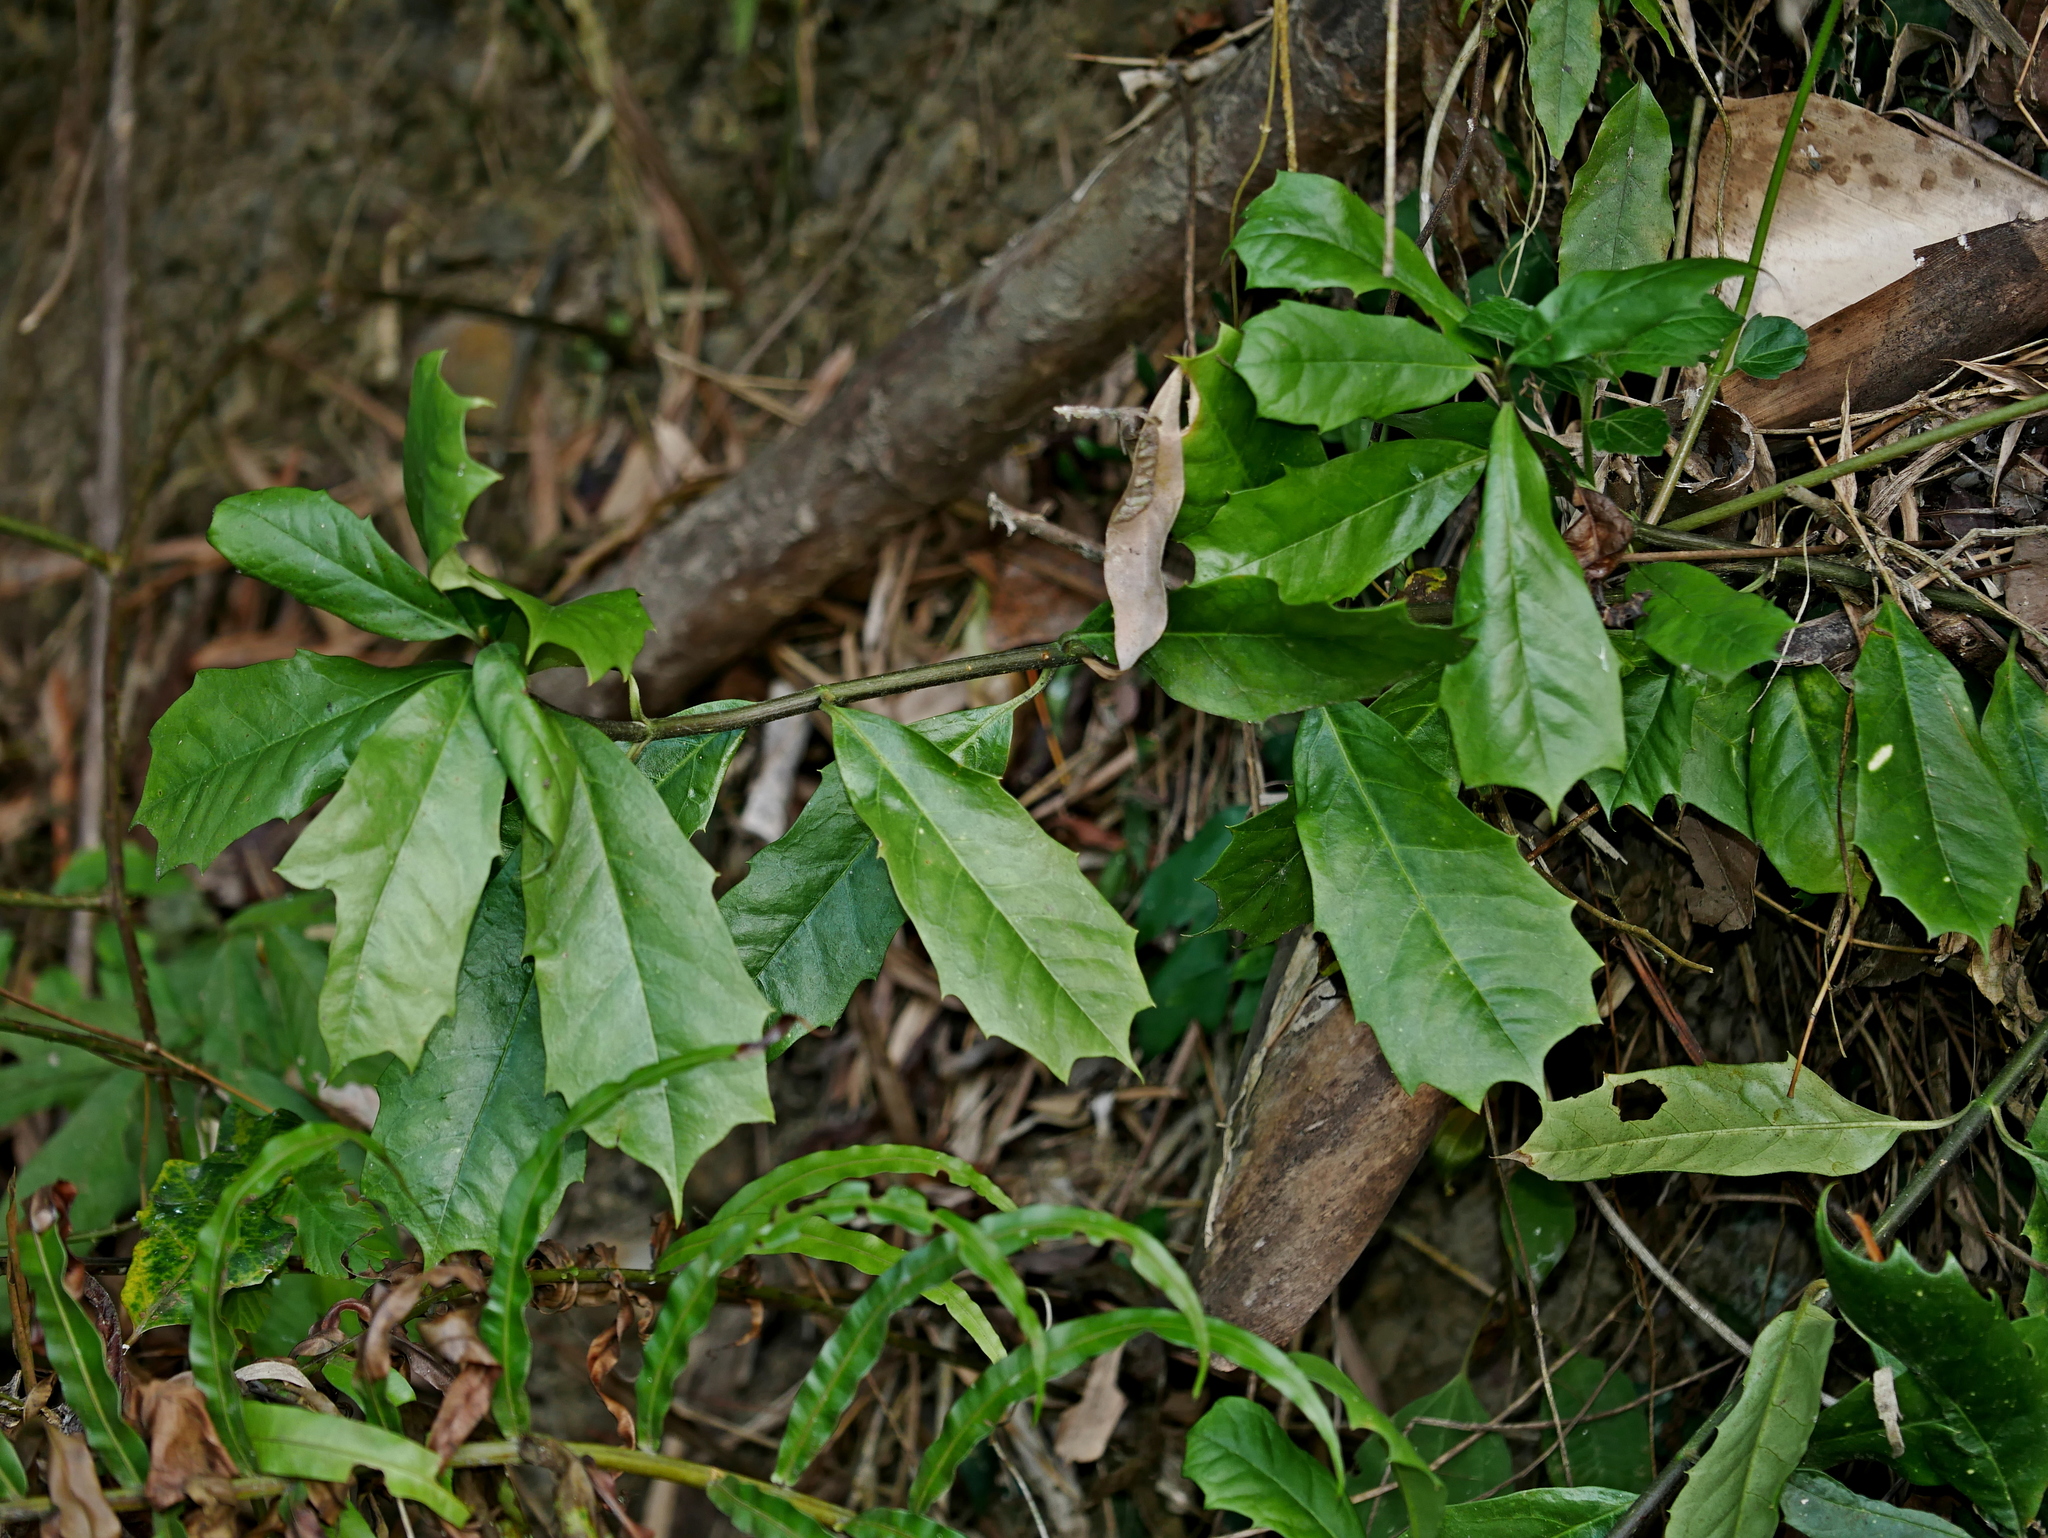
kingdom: Plantae
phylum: Tracheophyta
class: Magnoliopsida
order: Garryales
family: Garryaceae
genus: Aucuba
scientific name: Aucuba chinensis
